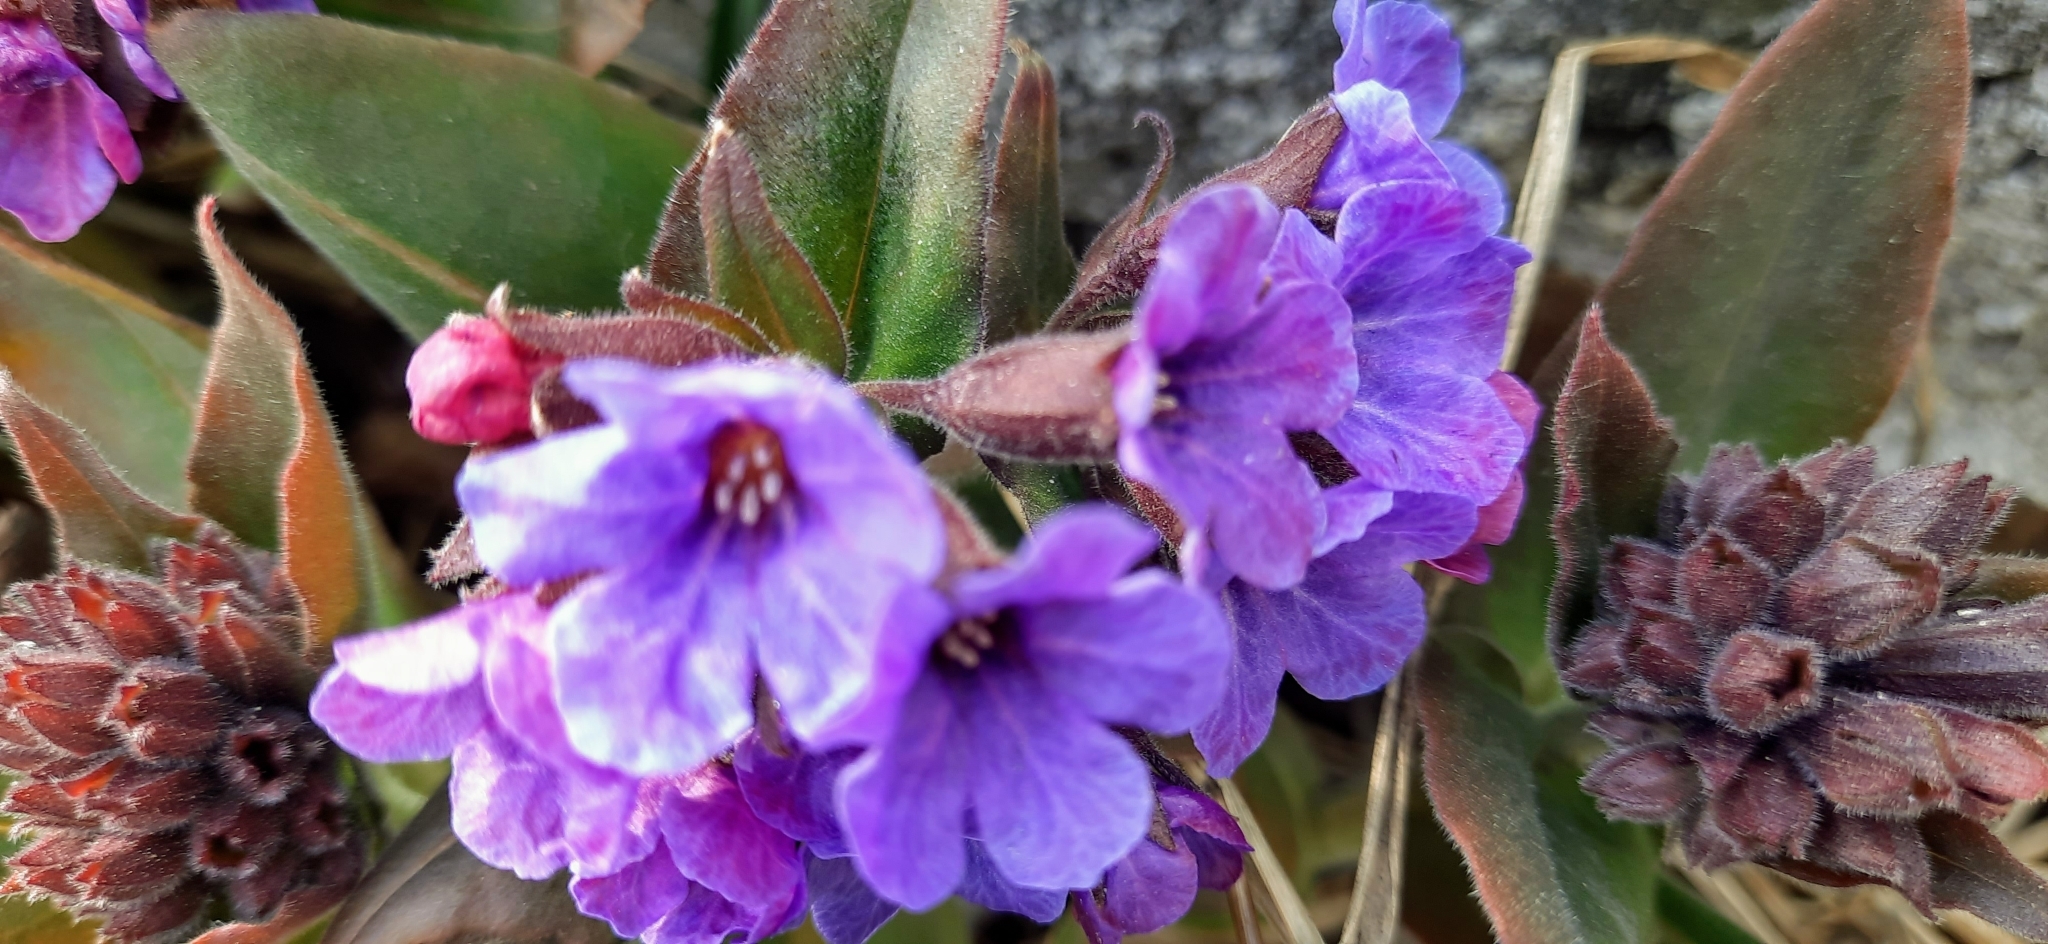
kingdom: Plantae
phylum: Tracheophyta
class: Magnoliopsida
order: Boraginales
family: Boraginaceae
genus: Pulmonaria
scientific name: Pulmonaria mollis
